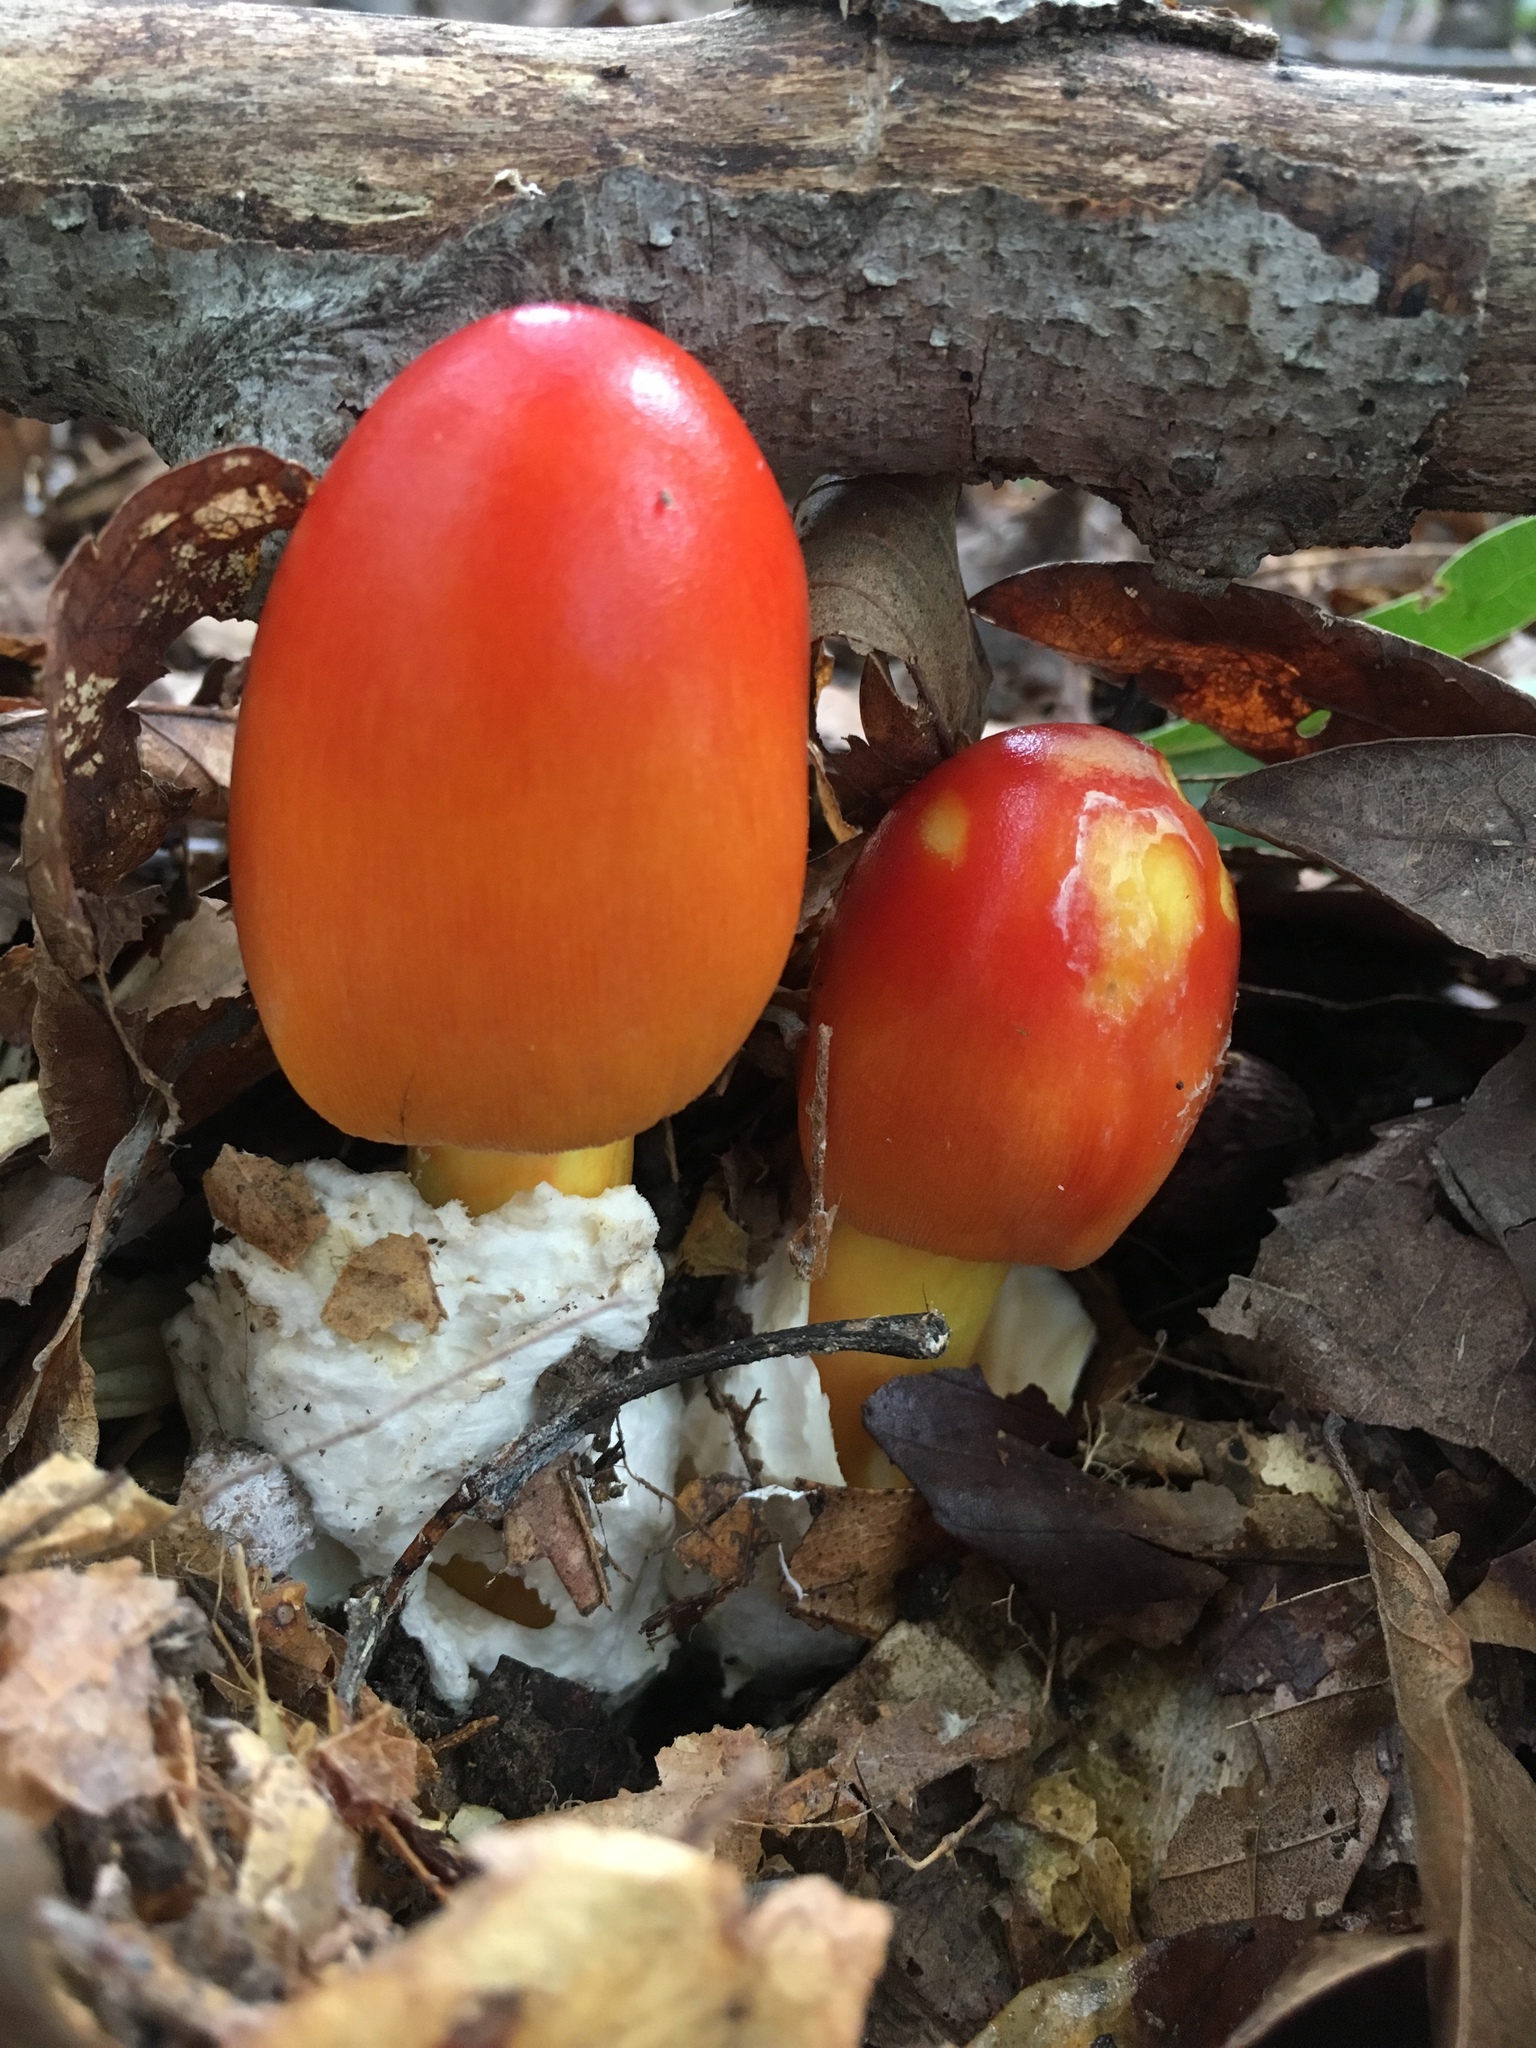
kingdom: Fungi
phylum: Basidiomycota
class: Agaricomycetes
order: Agaricales
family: Amanitaceae
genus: Amanita
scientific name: Amanita jacksonii
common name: Jackson's slender caesar
